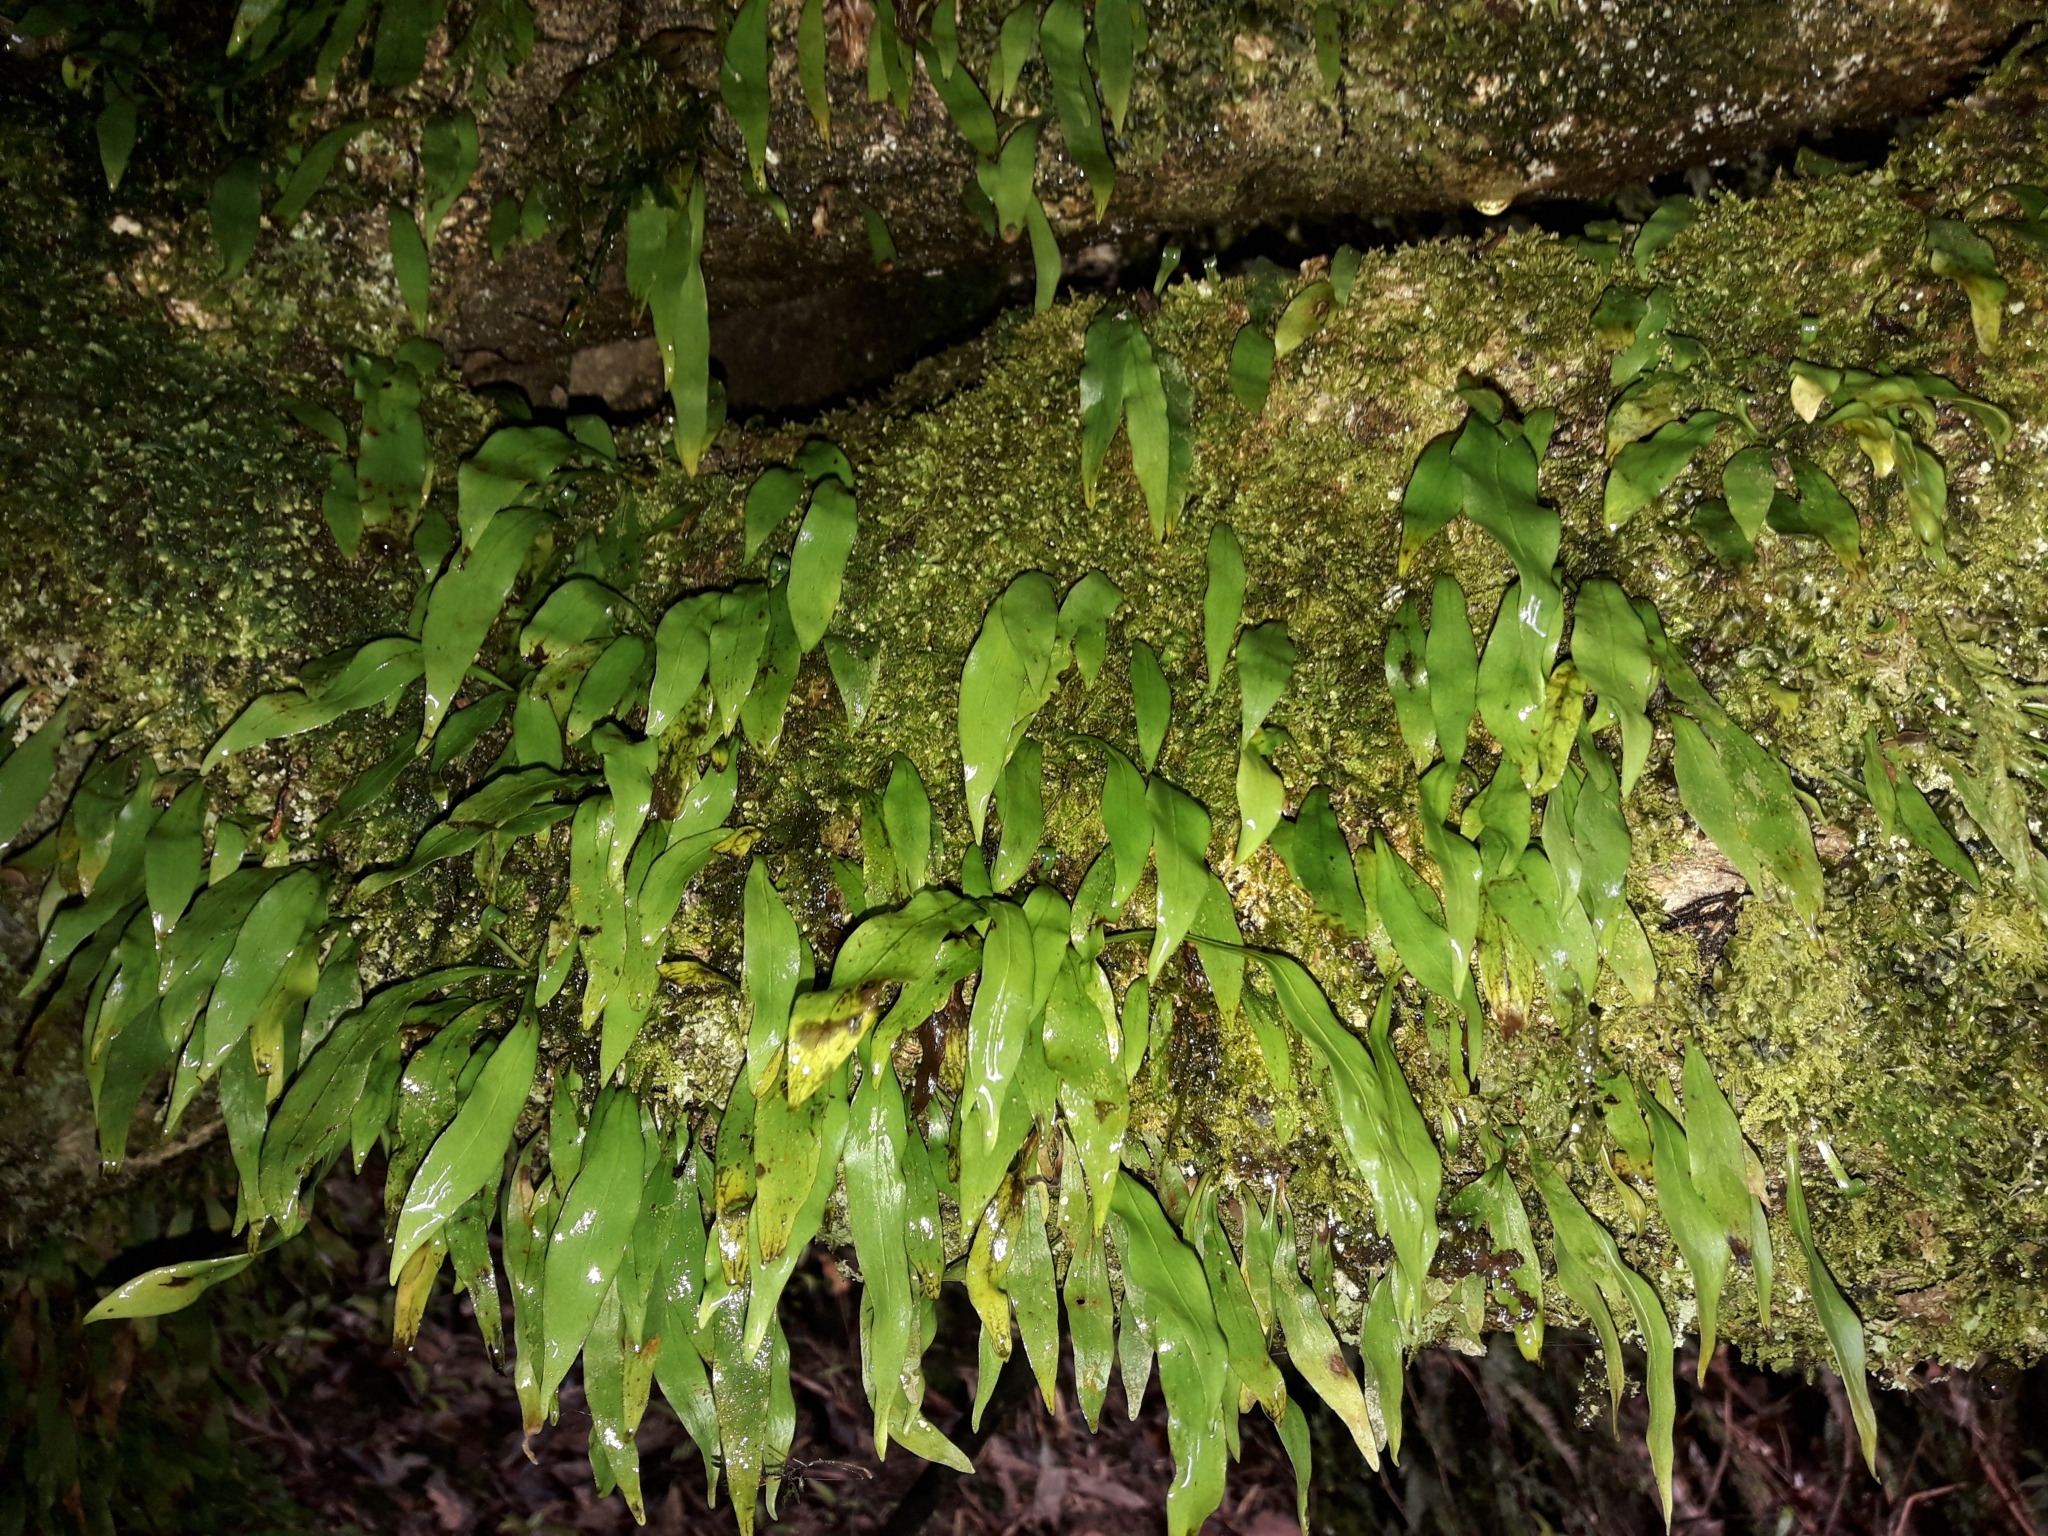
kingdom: Plantae
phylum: Tracheophyta
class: Polypodiopsida
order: Polypodiales
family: Polypodiaceae
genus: Loxogramme
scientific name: Loxogramme dictyopteris
